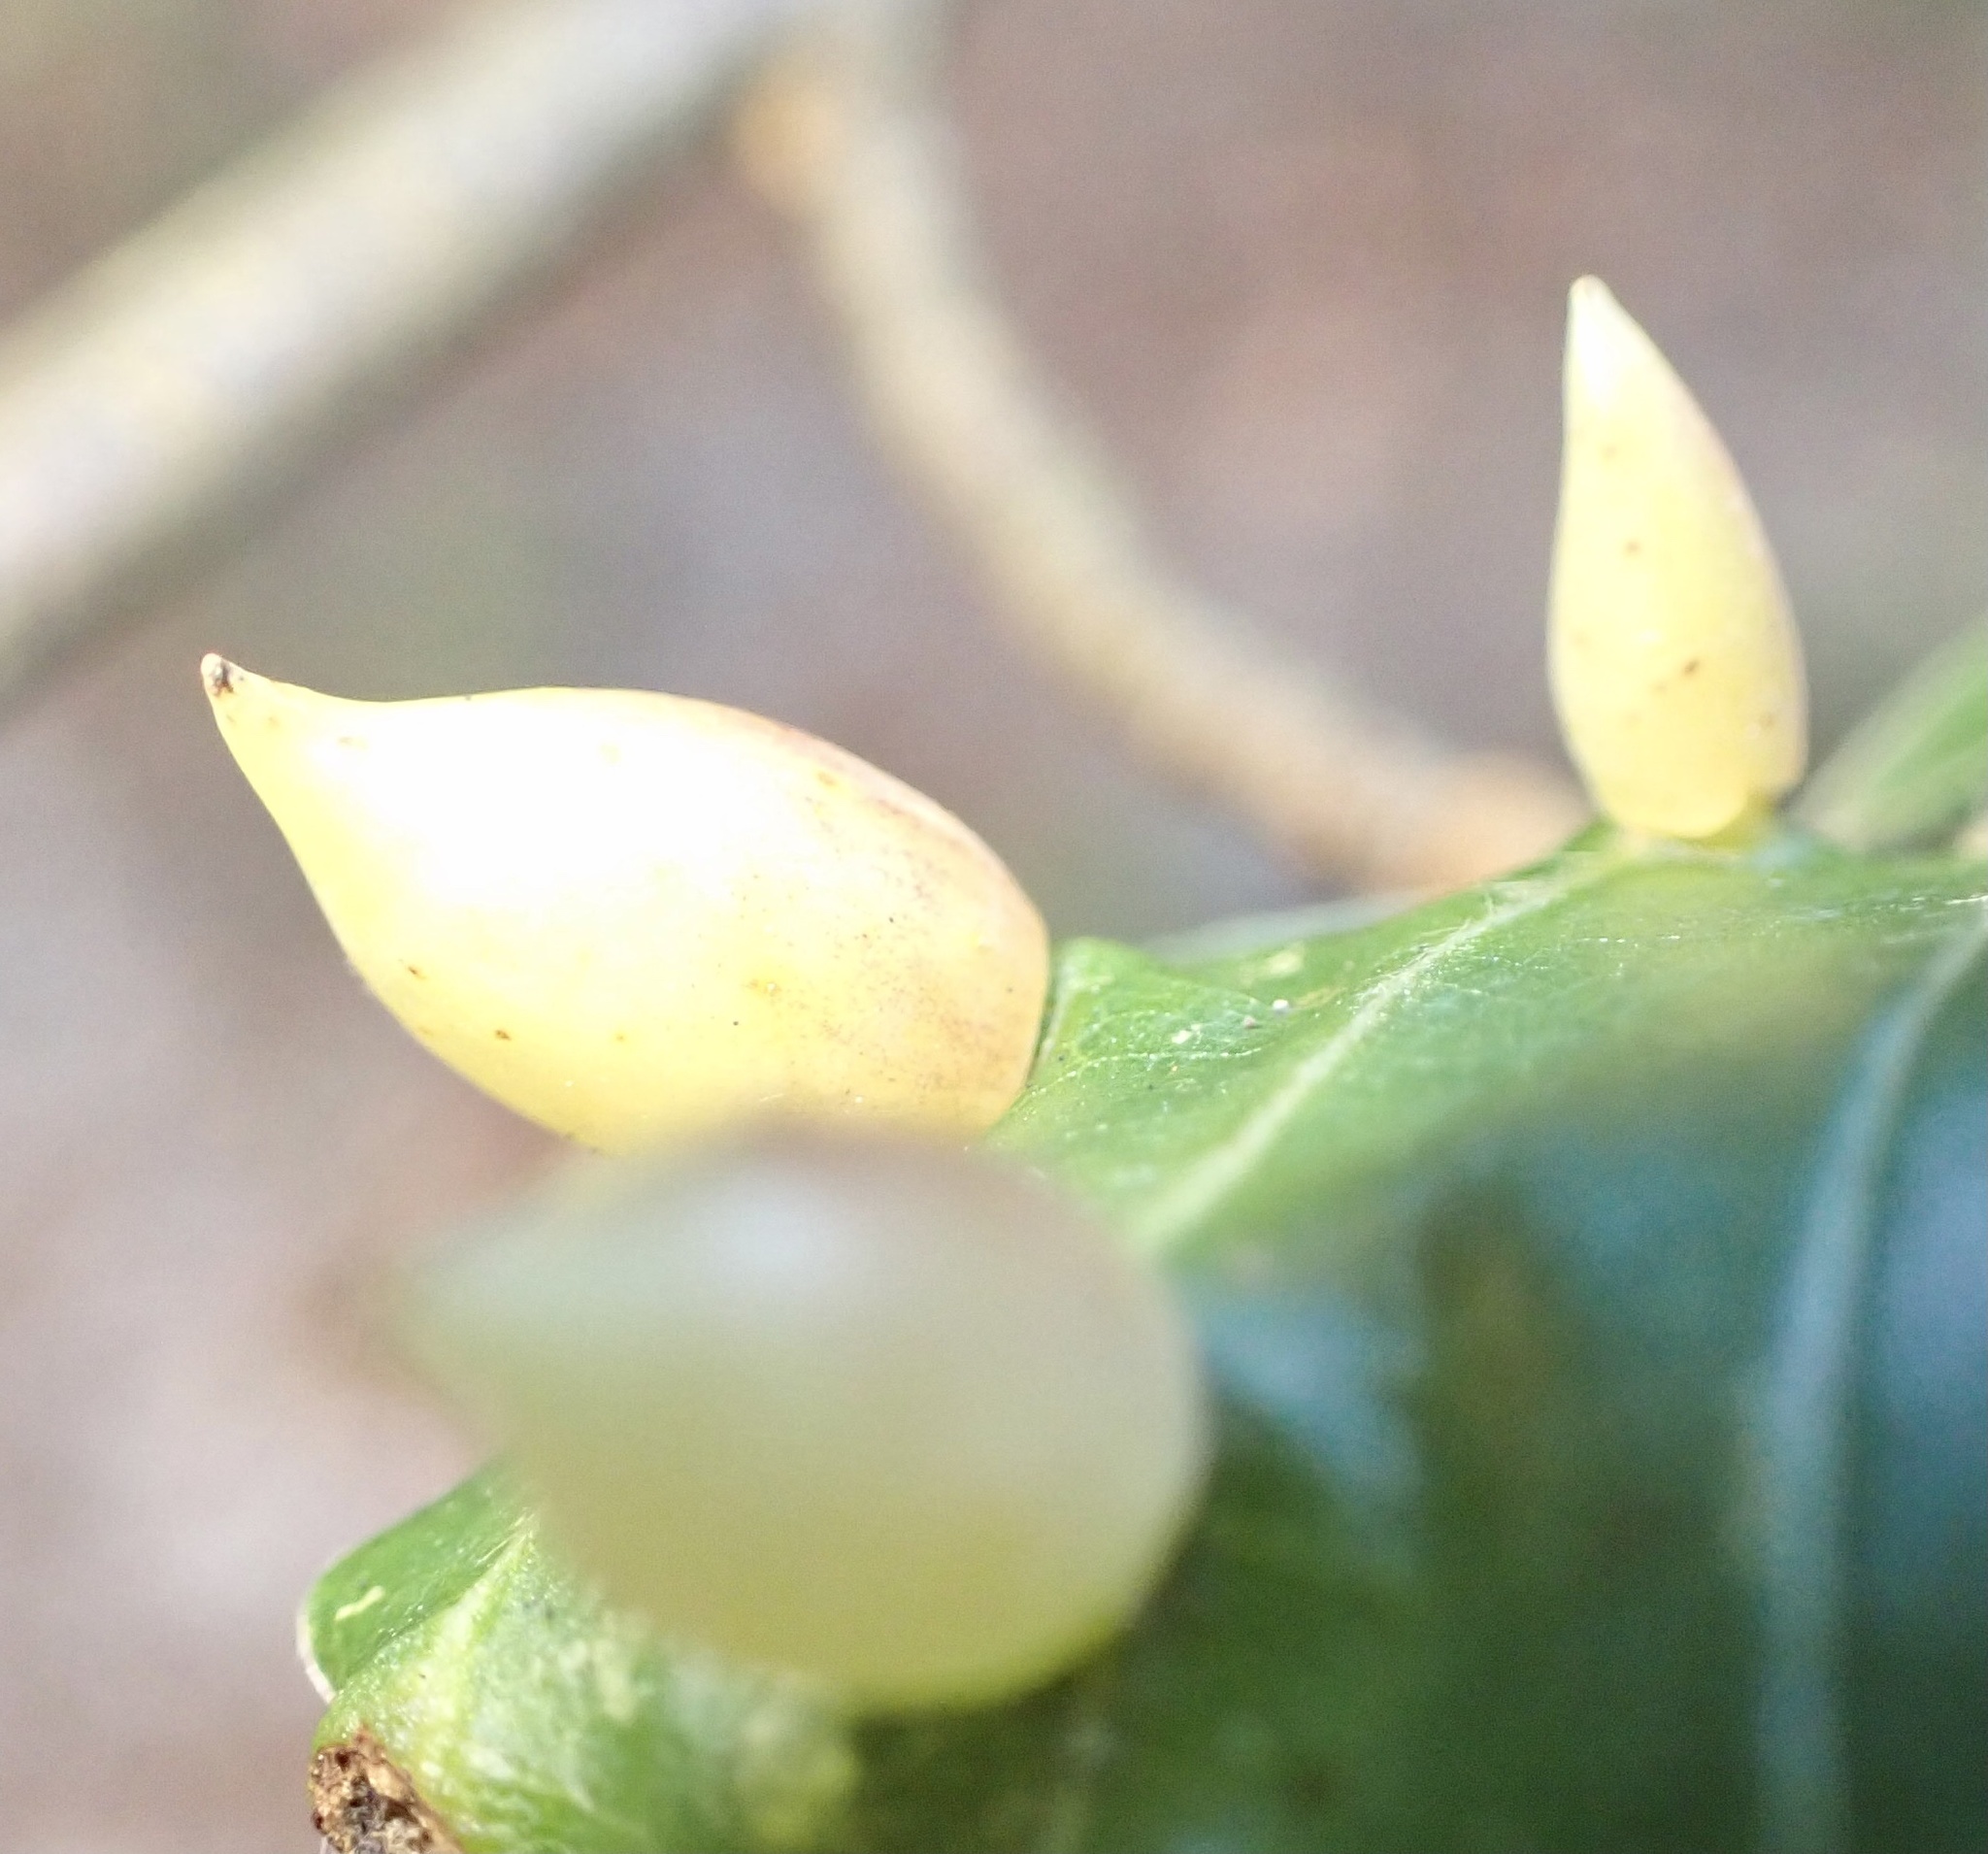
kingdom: Animalia
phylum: Arthropoda
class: Insecta
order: Diptera
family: Cecidomyiidae
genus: Mikiola
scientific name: Mikiola fagi
